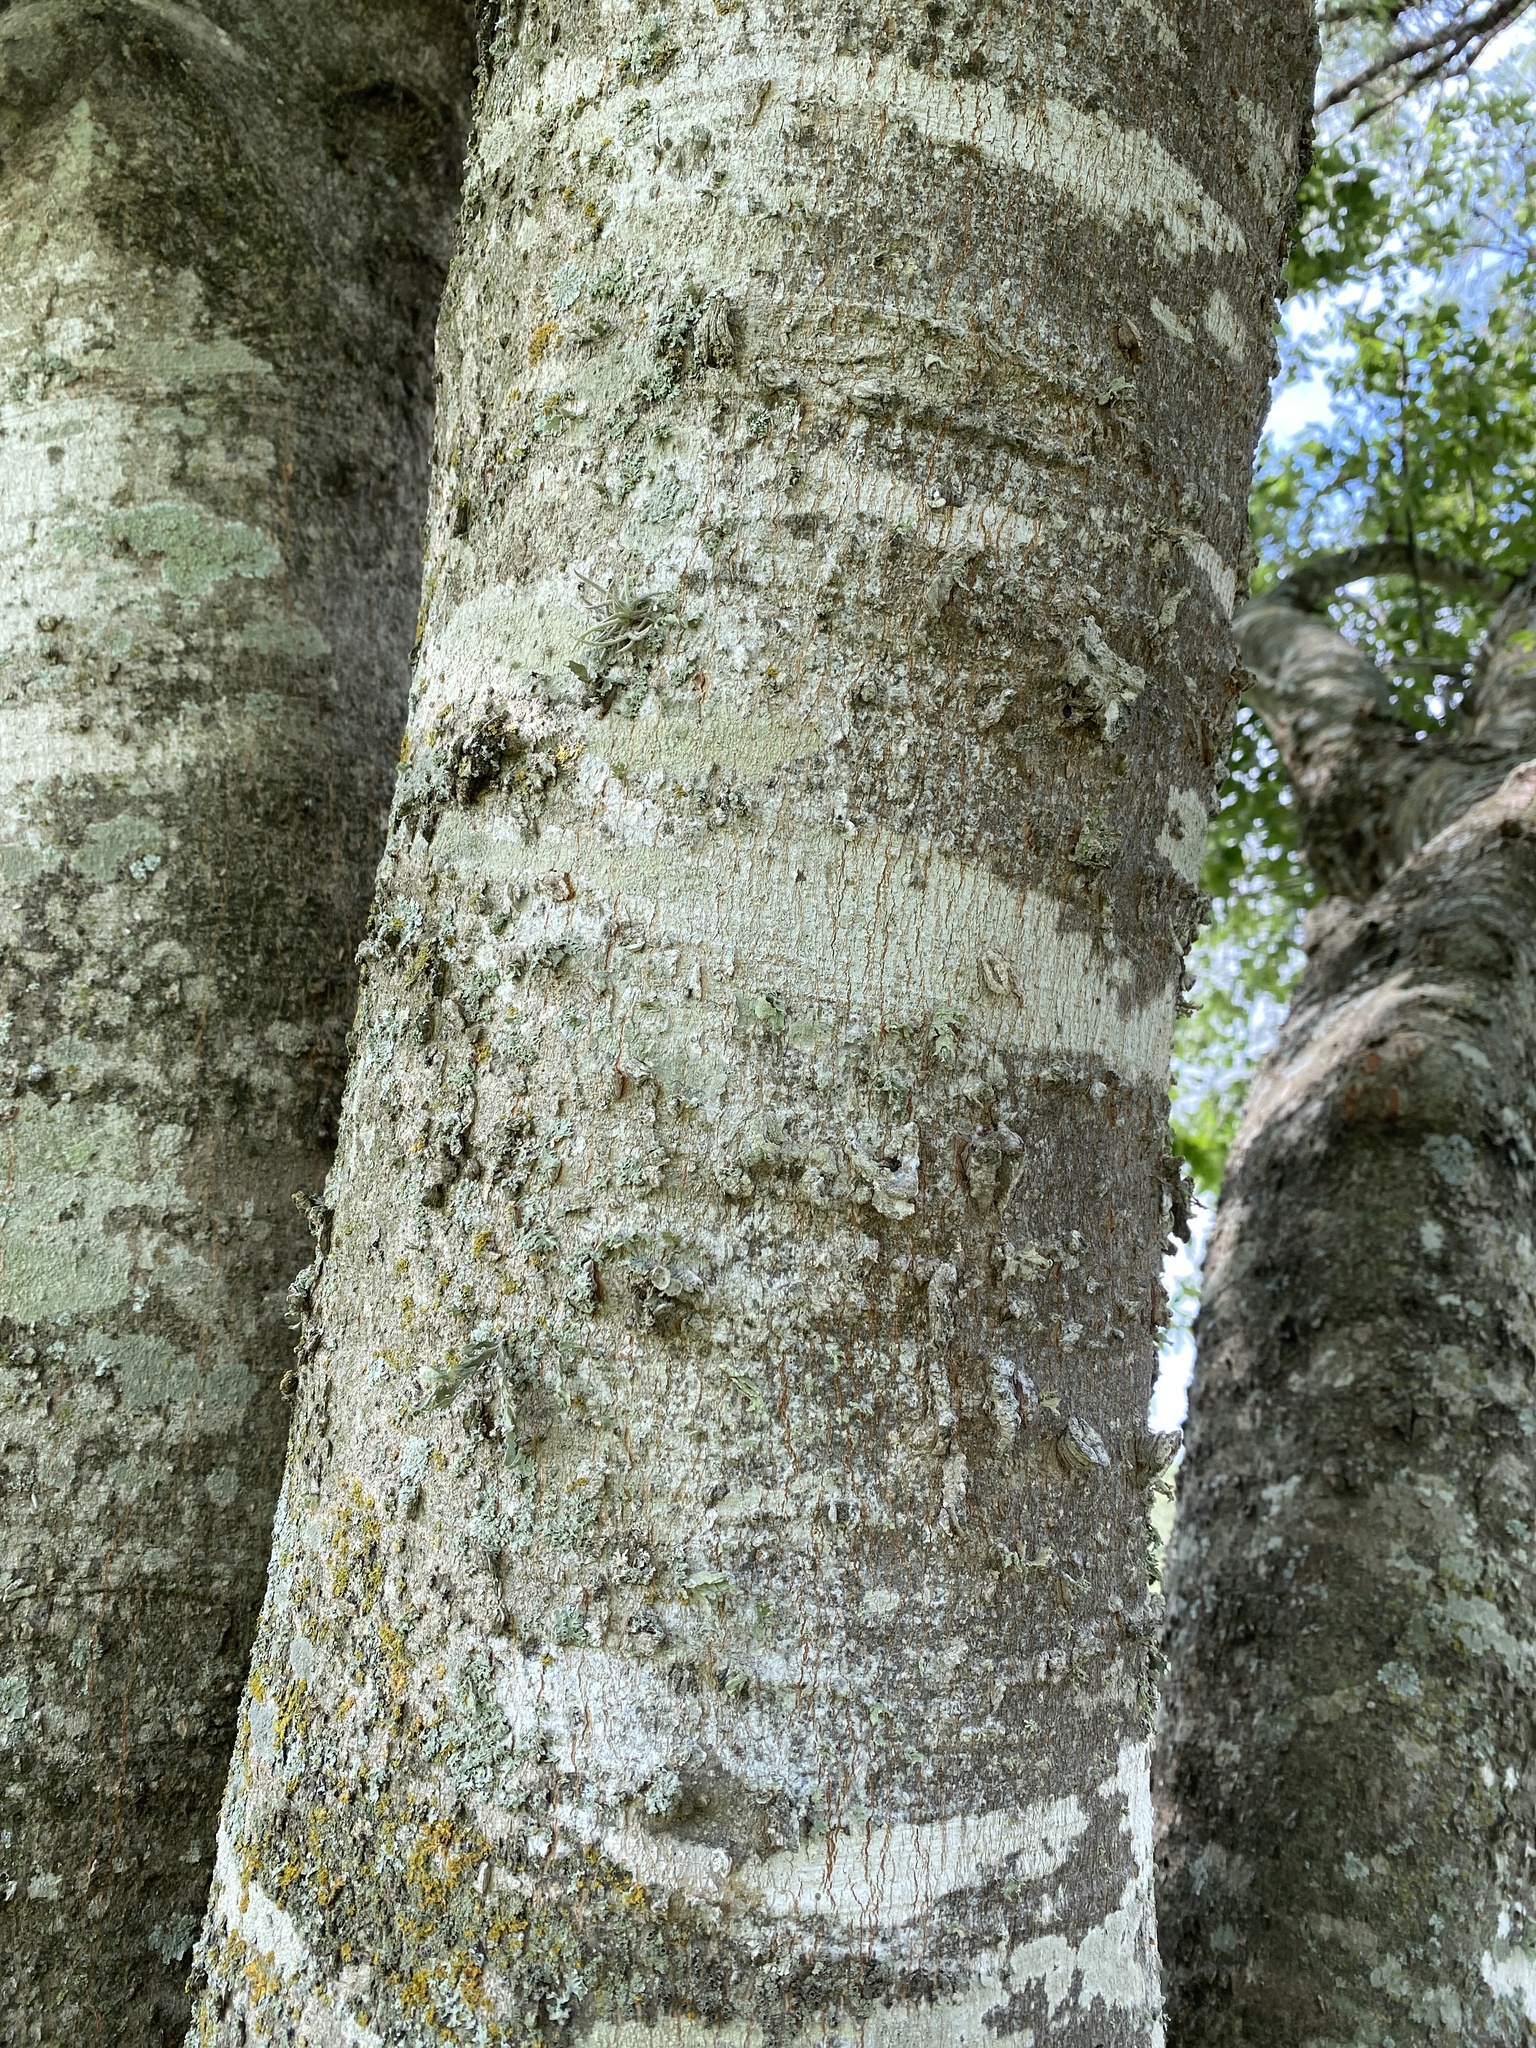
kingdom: Plantae
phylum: Tracheophyta
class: Magnoliopsida
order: Rosales
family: Cannabaceae
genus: Celtis
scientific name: Celtis laevigata
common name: Sugarberry
